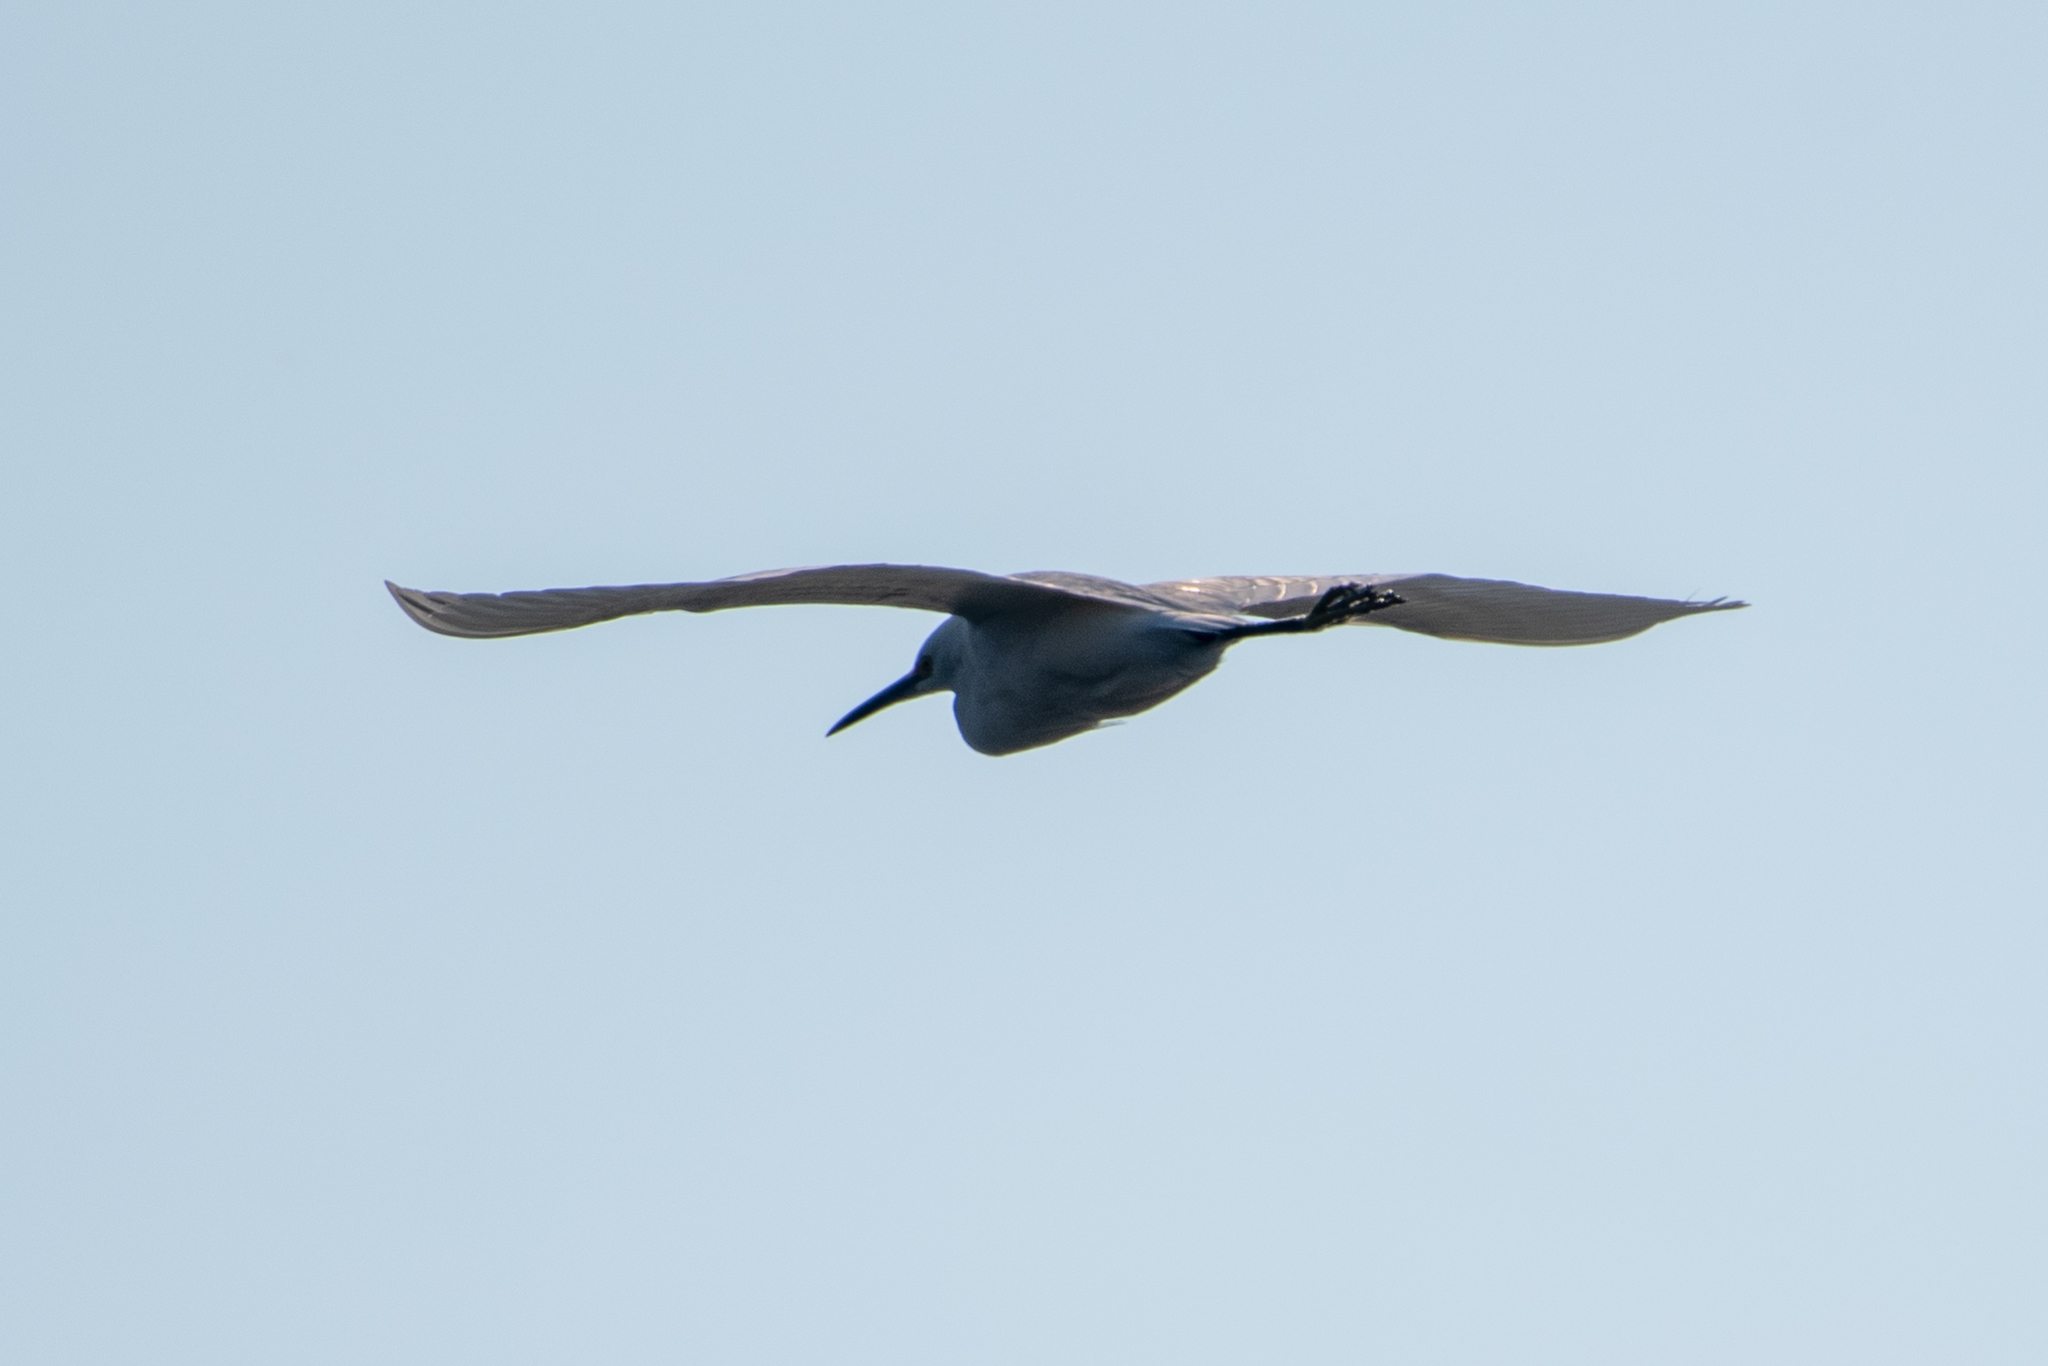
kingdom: Animalia
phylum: Chordata
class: Aves
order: Pelecaniformes
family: Ardeidae
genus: Egretta
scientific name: Egretta thula
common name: Snowy egret
